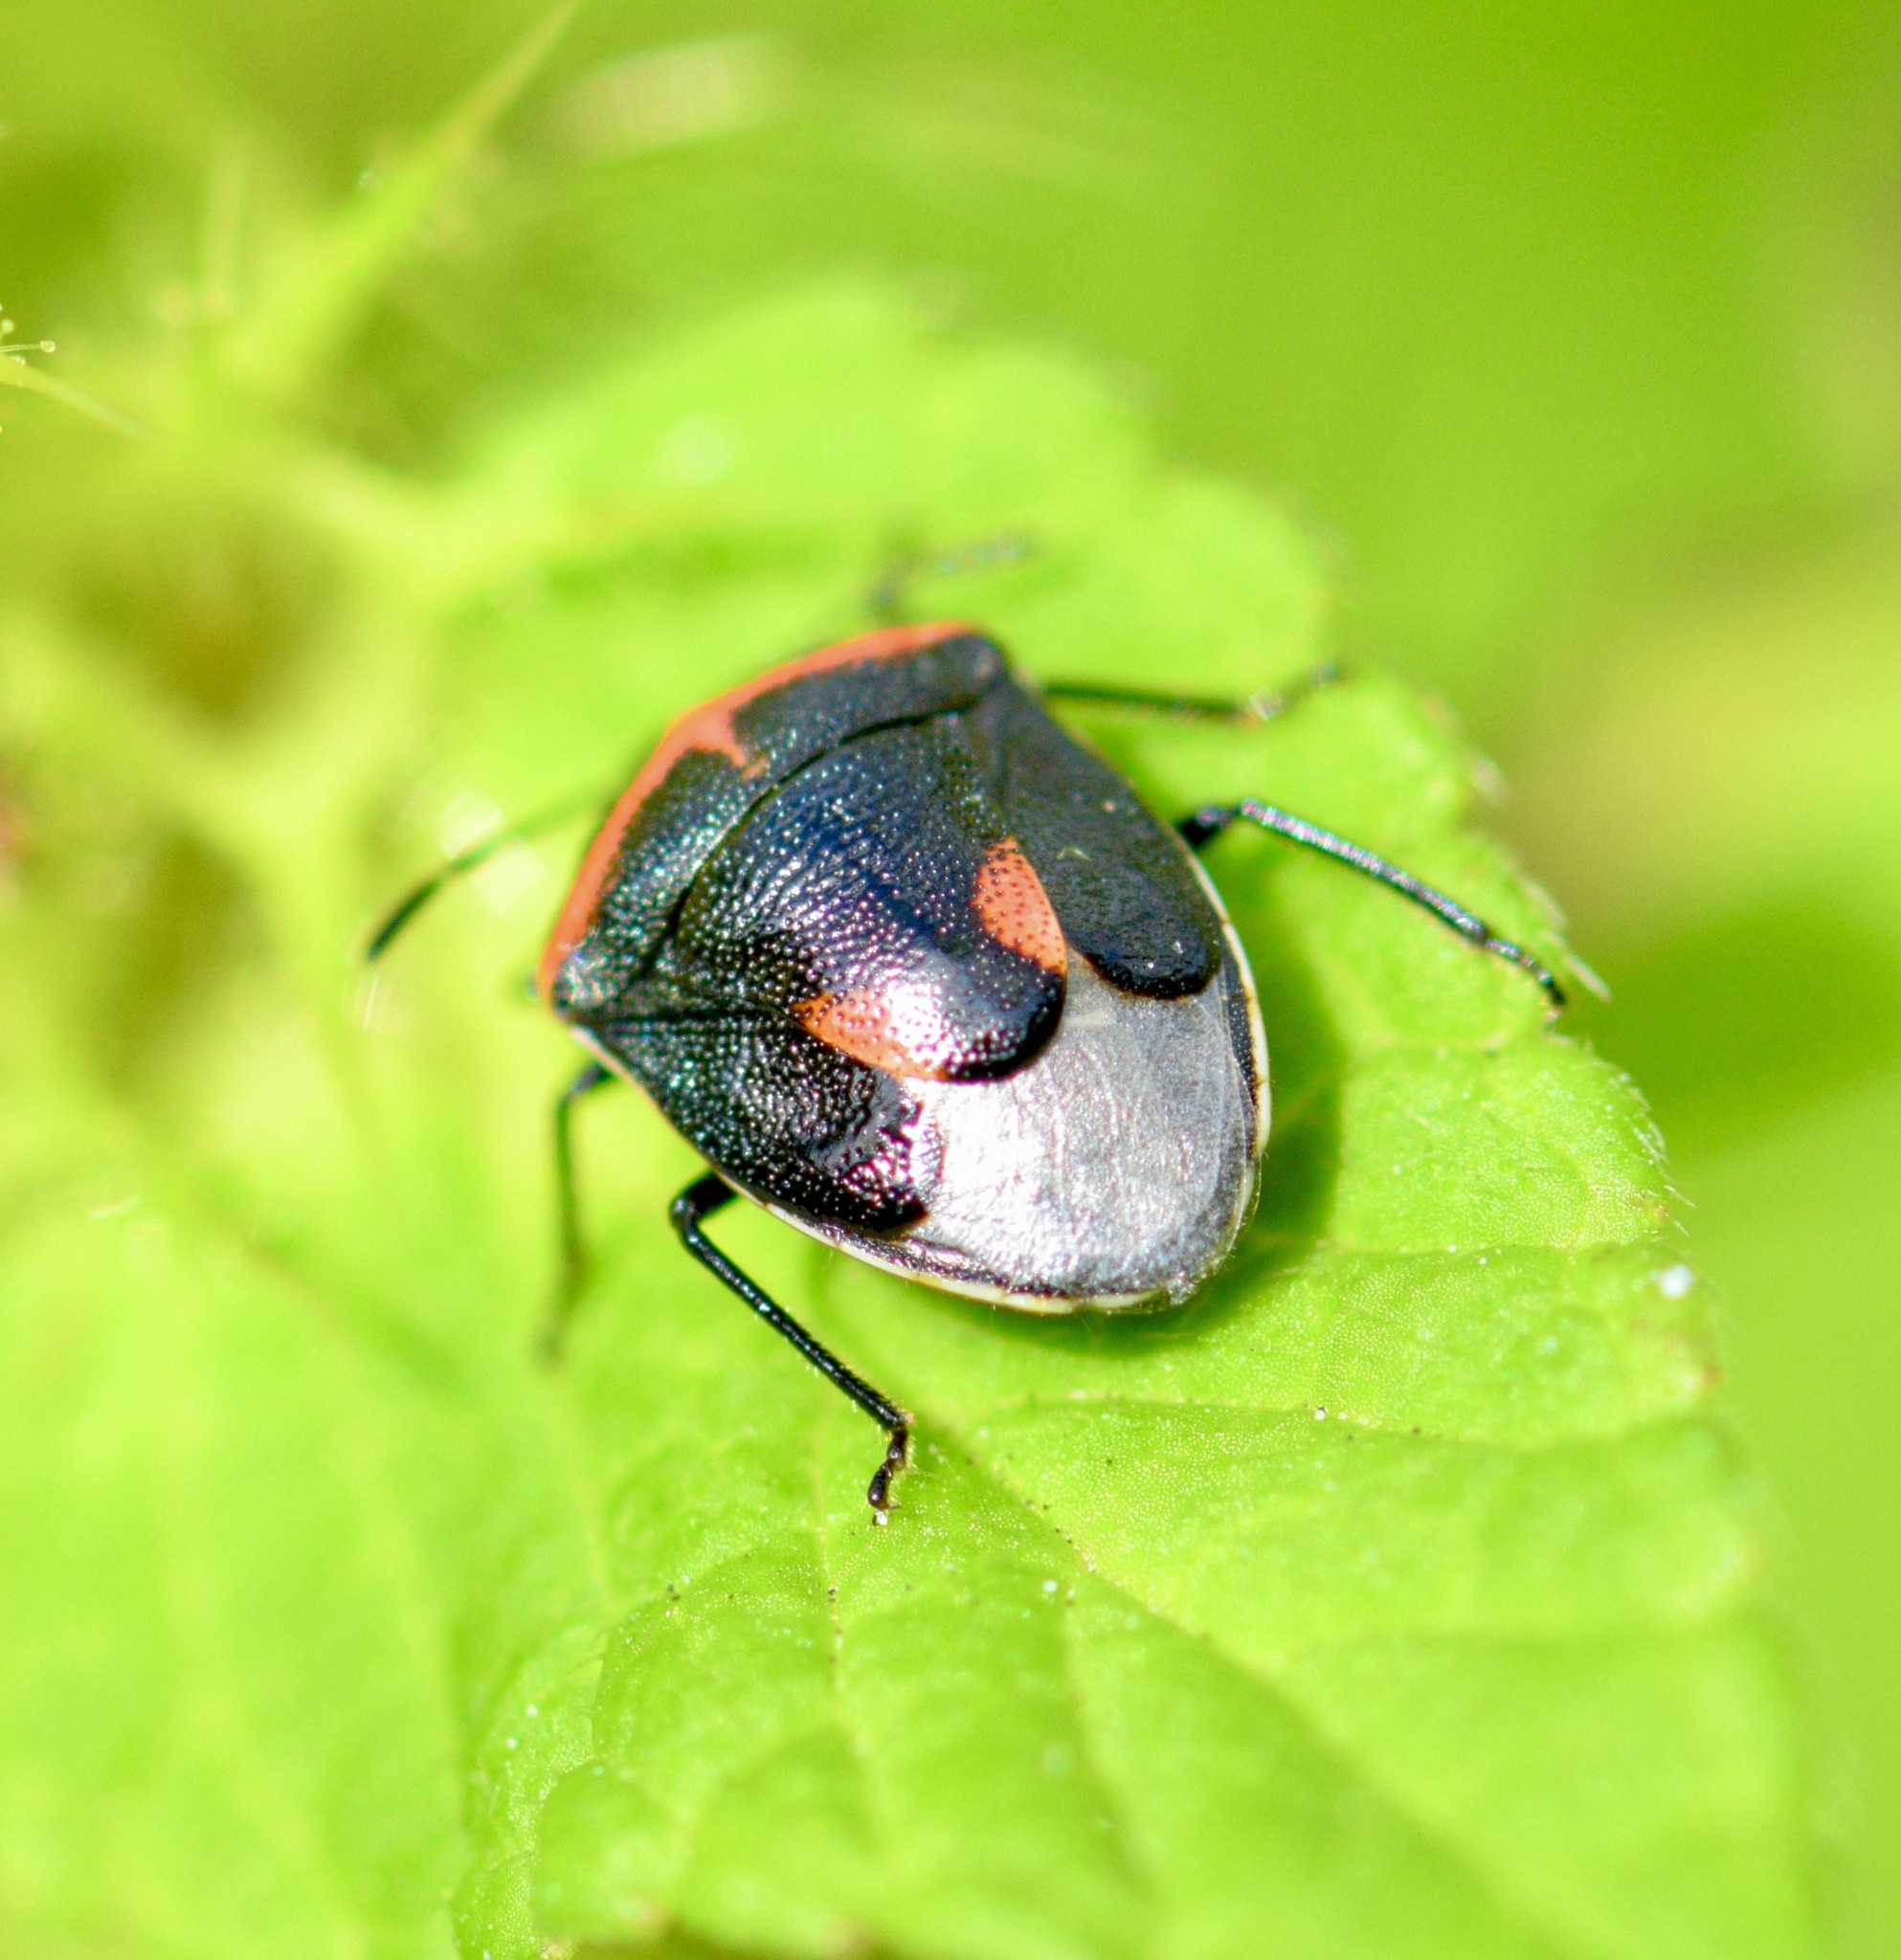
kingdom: Animalia
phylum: Arthropoda
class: Insecta
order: Hemiptera
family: Pentatomidae
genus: Cosmopepla
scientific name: Cosmopepla lintneriana
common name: Twice-stabbed stink bug
